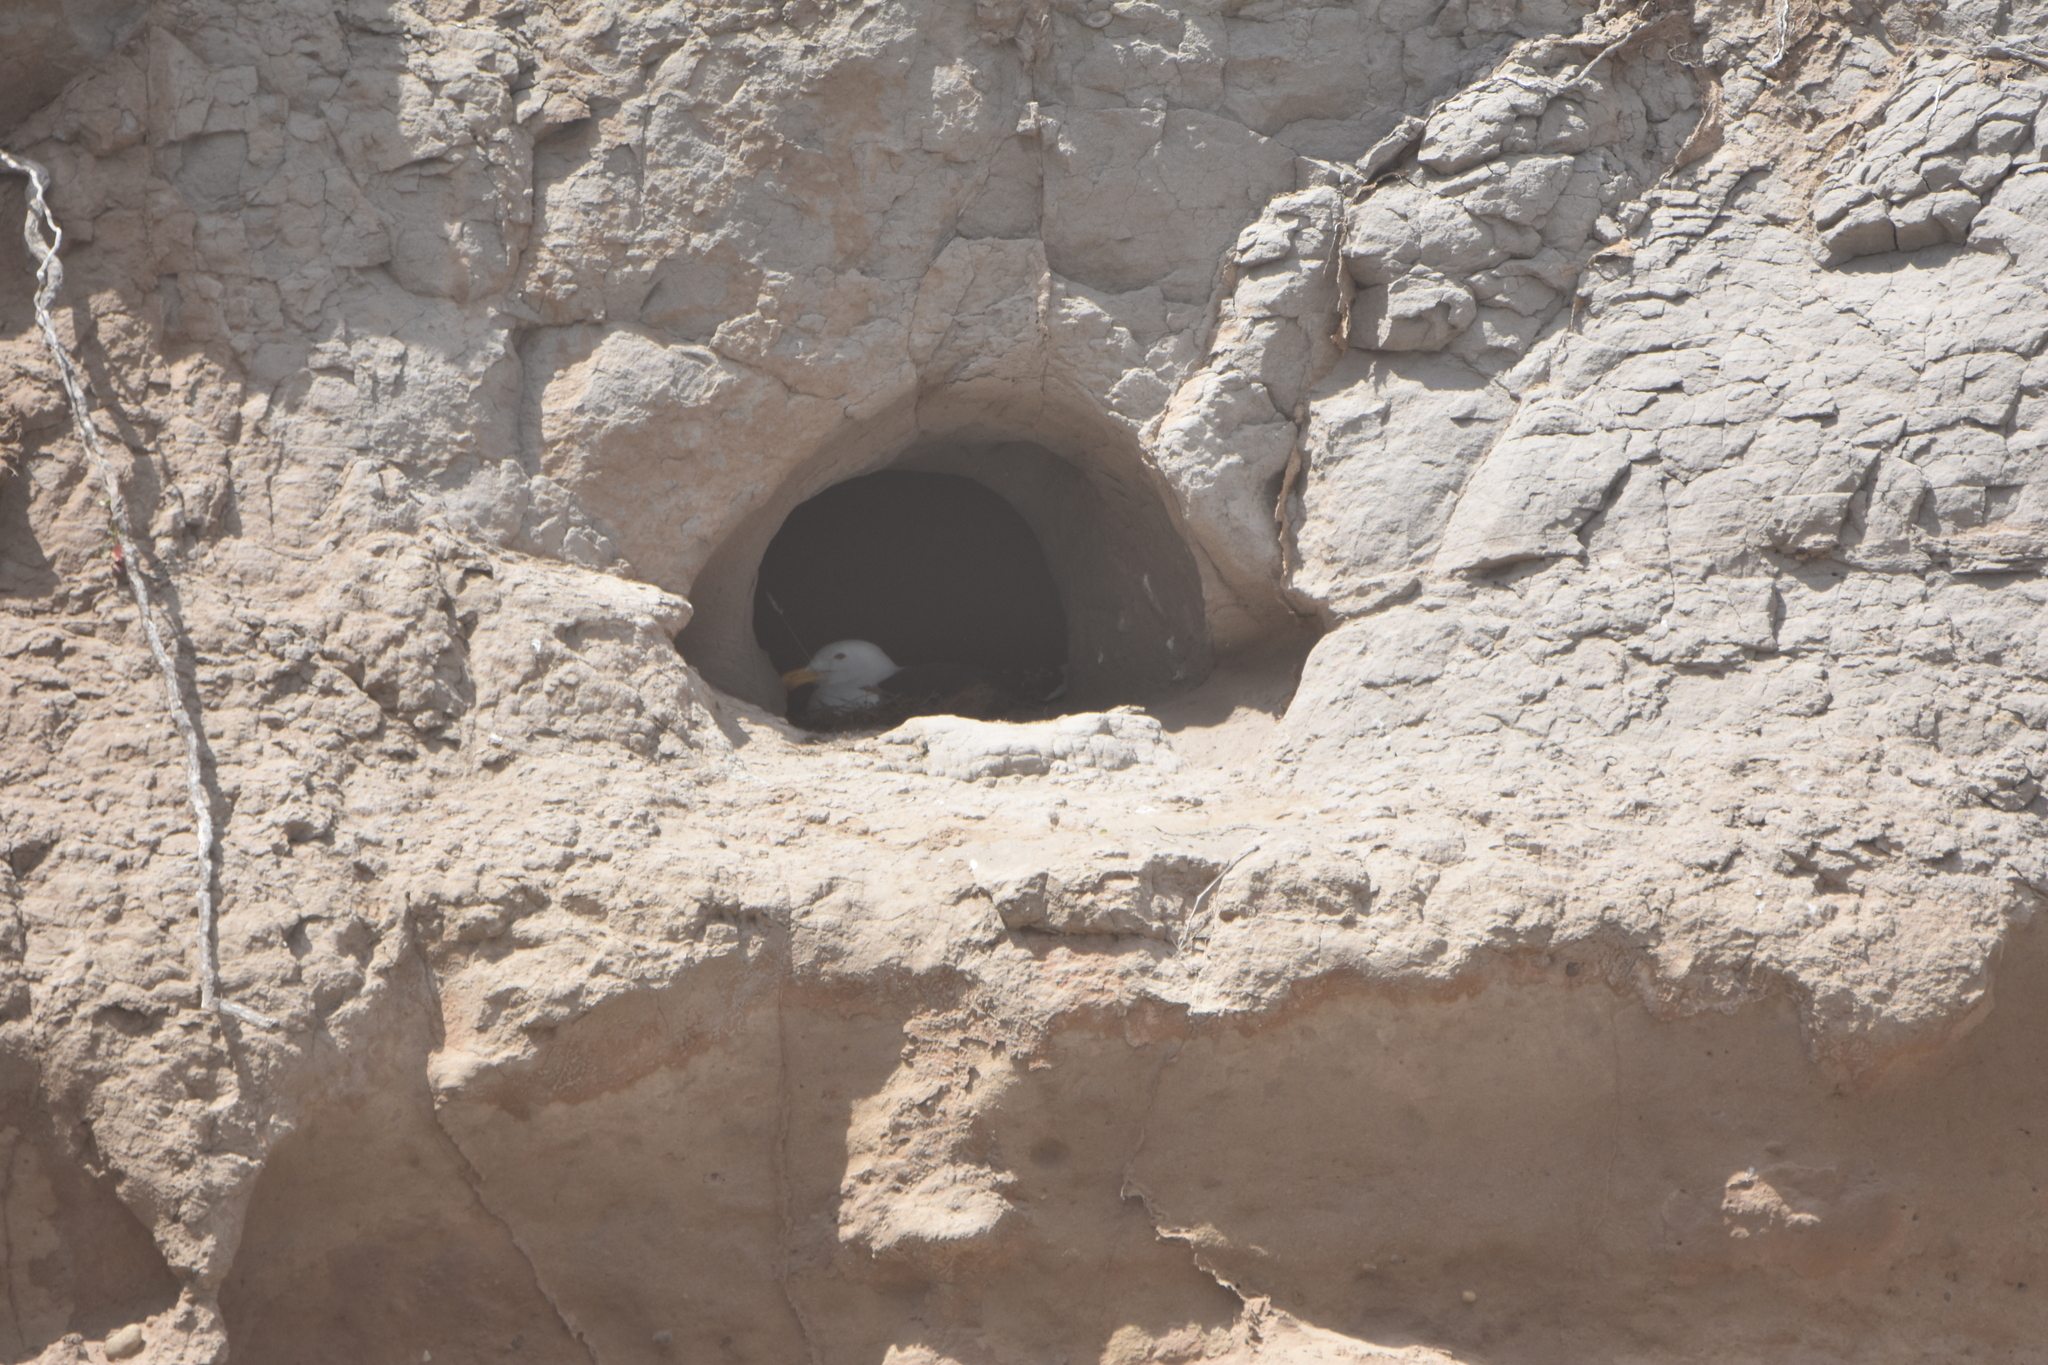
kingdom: Animalia
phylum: Chordata
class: Aves
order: Charadriiformes
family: Laridae
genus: Larus
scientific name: Larus dominicanus
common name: Kelp gull
